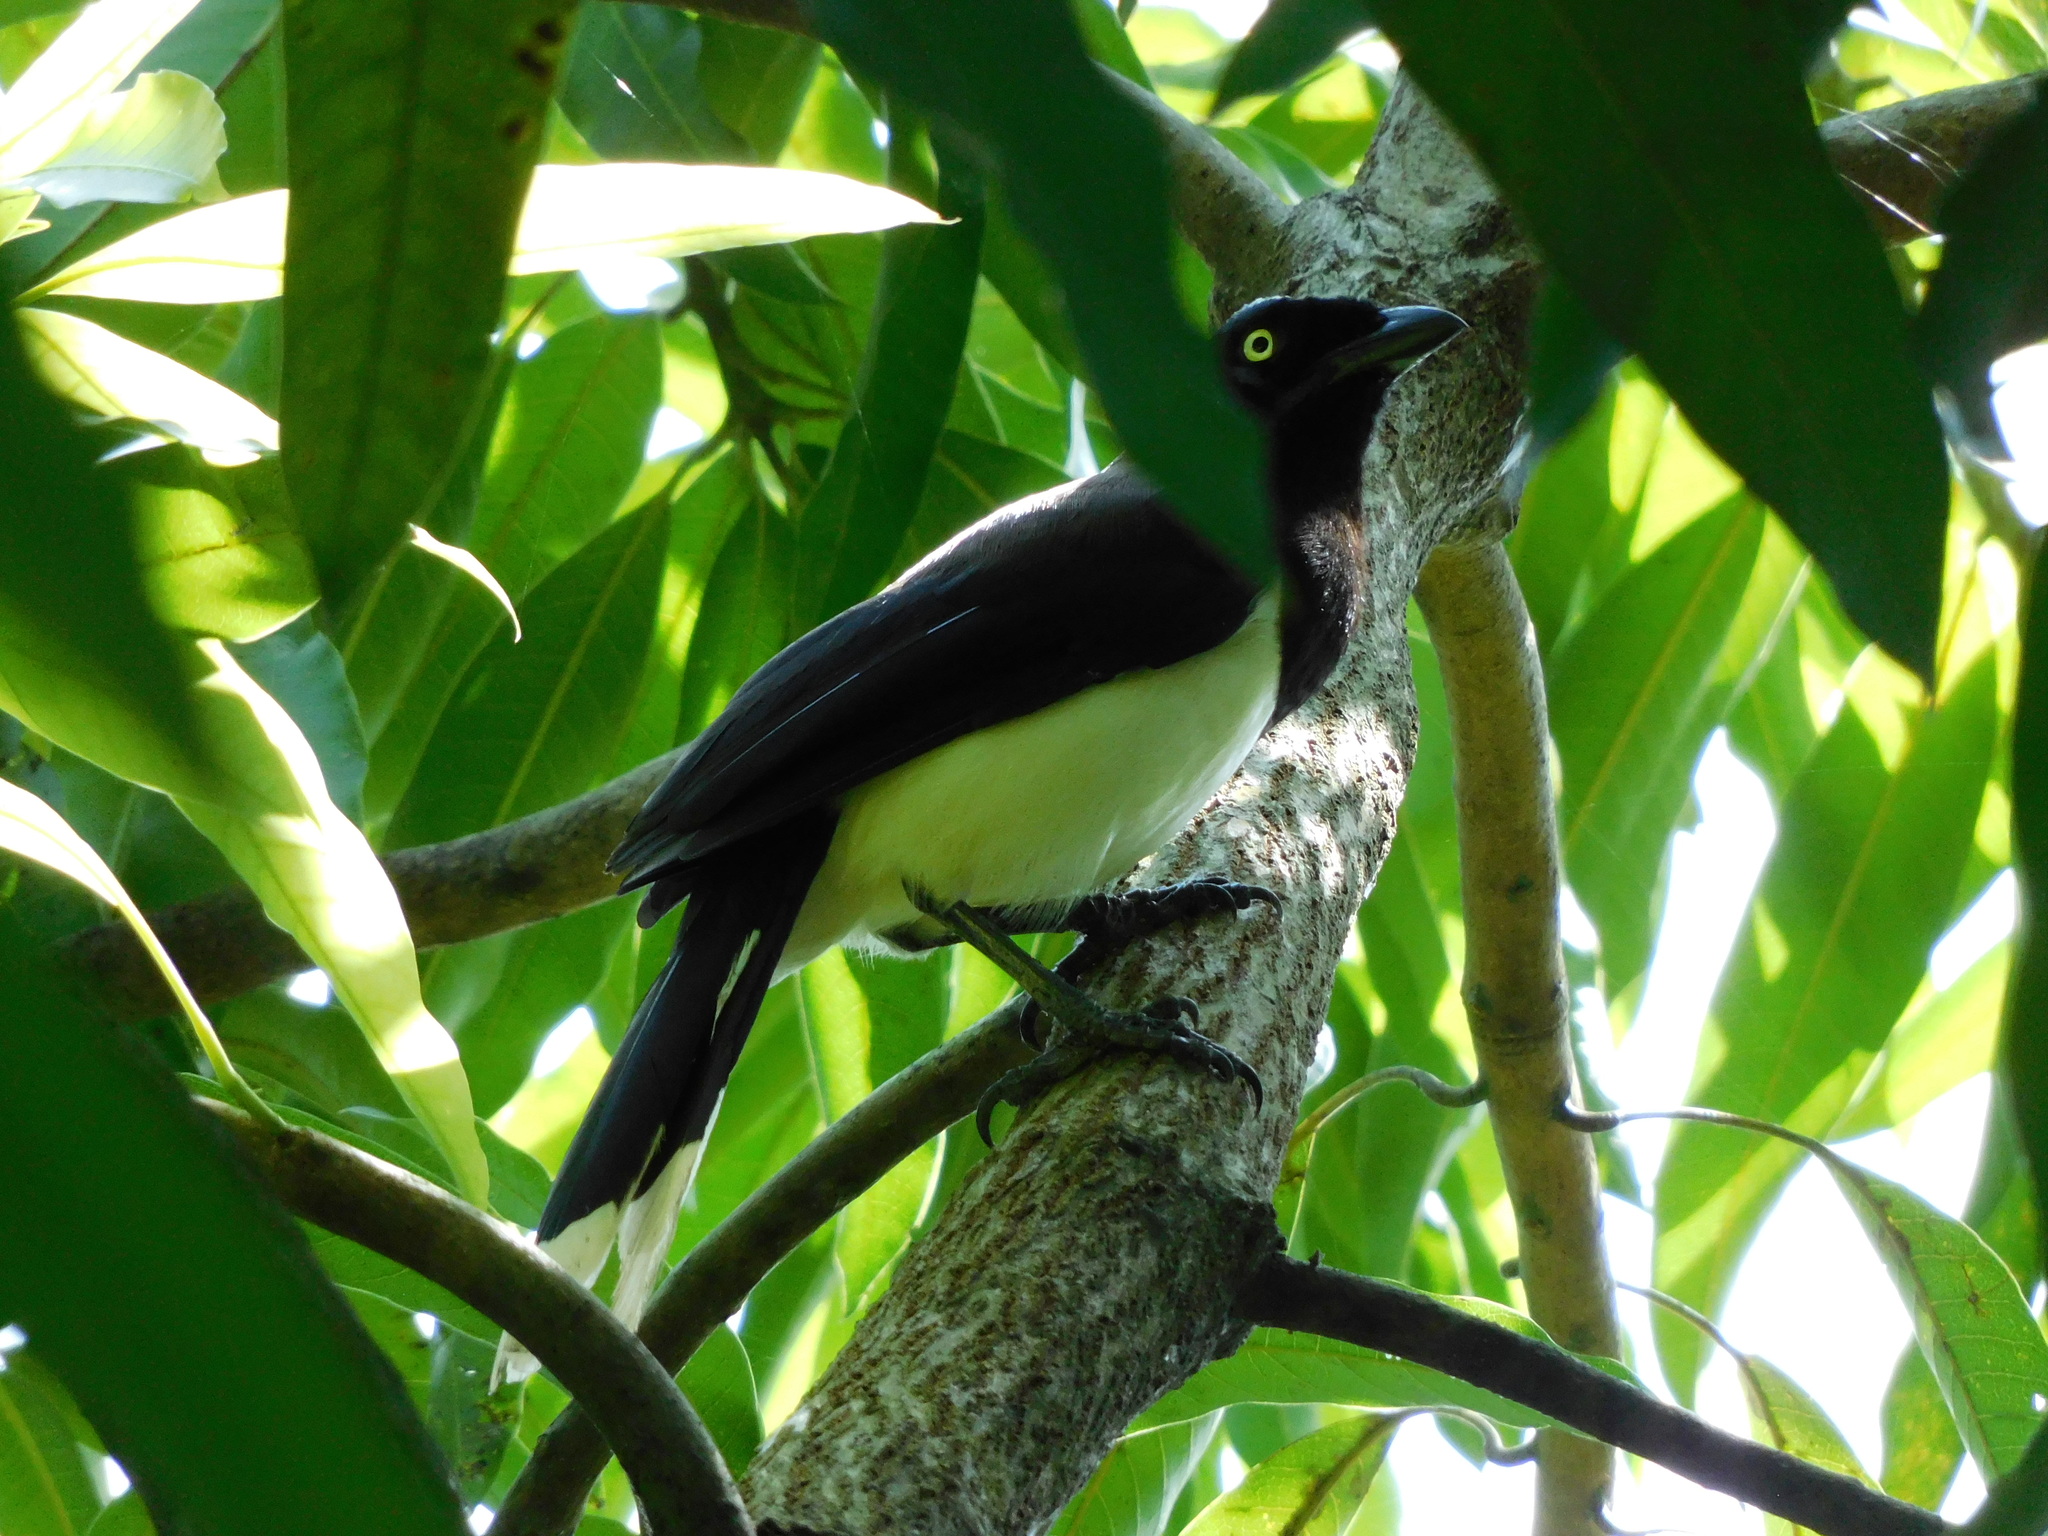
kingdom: Animalia
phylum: Chordata
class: Aves
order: Passeriformes
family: Corvidae
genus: Cyanocorax
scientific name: Cyanocorax affinis
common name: Black-chested jay
